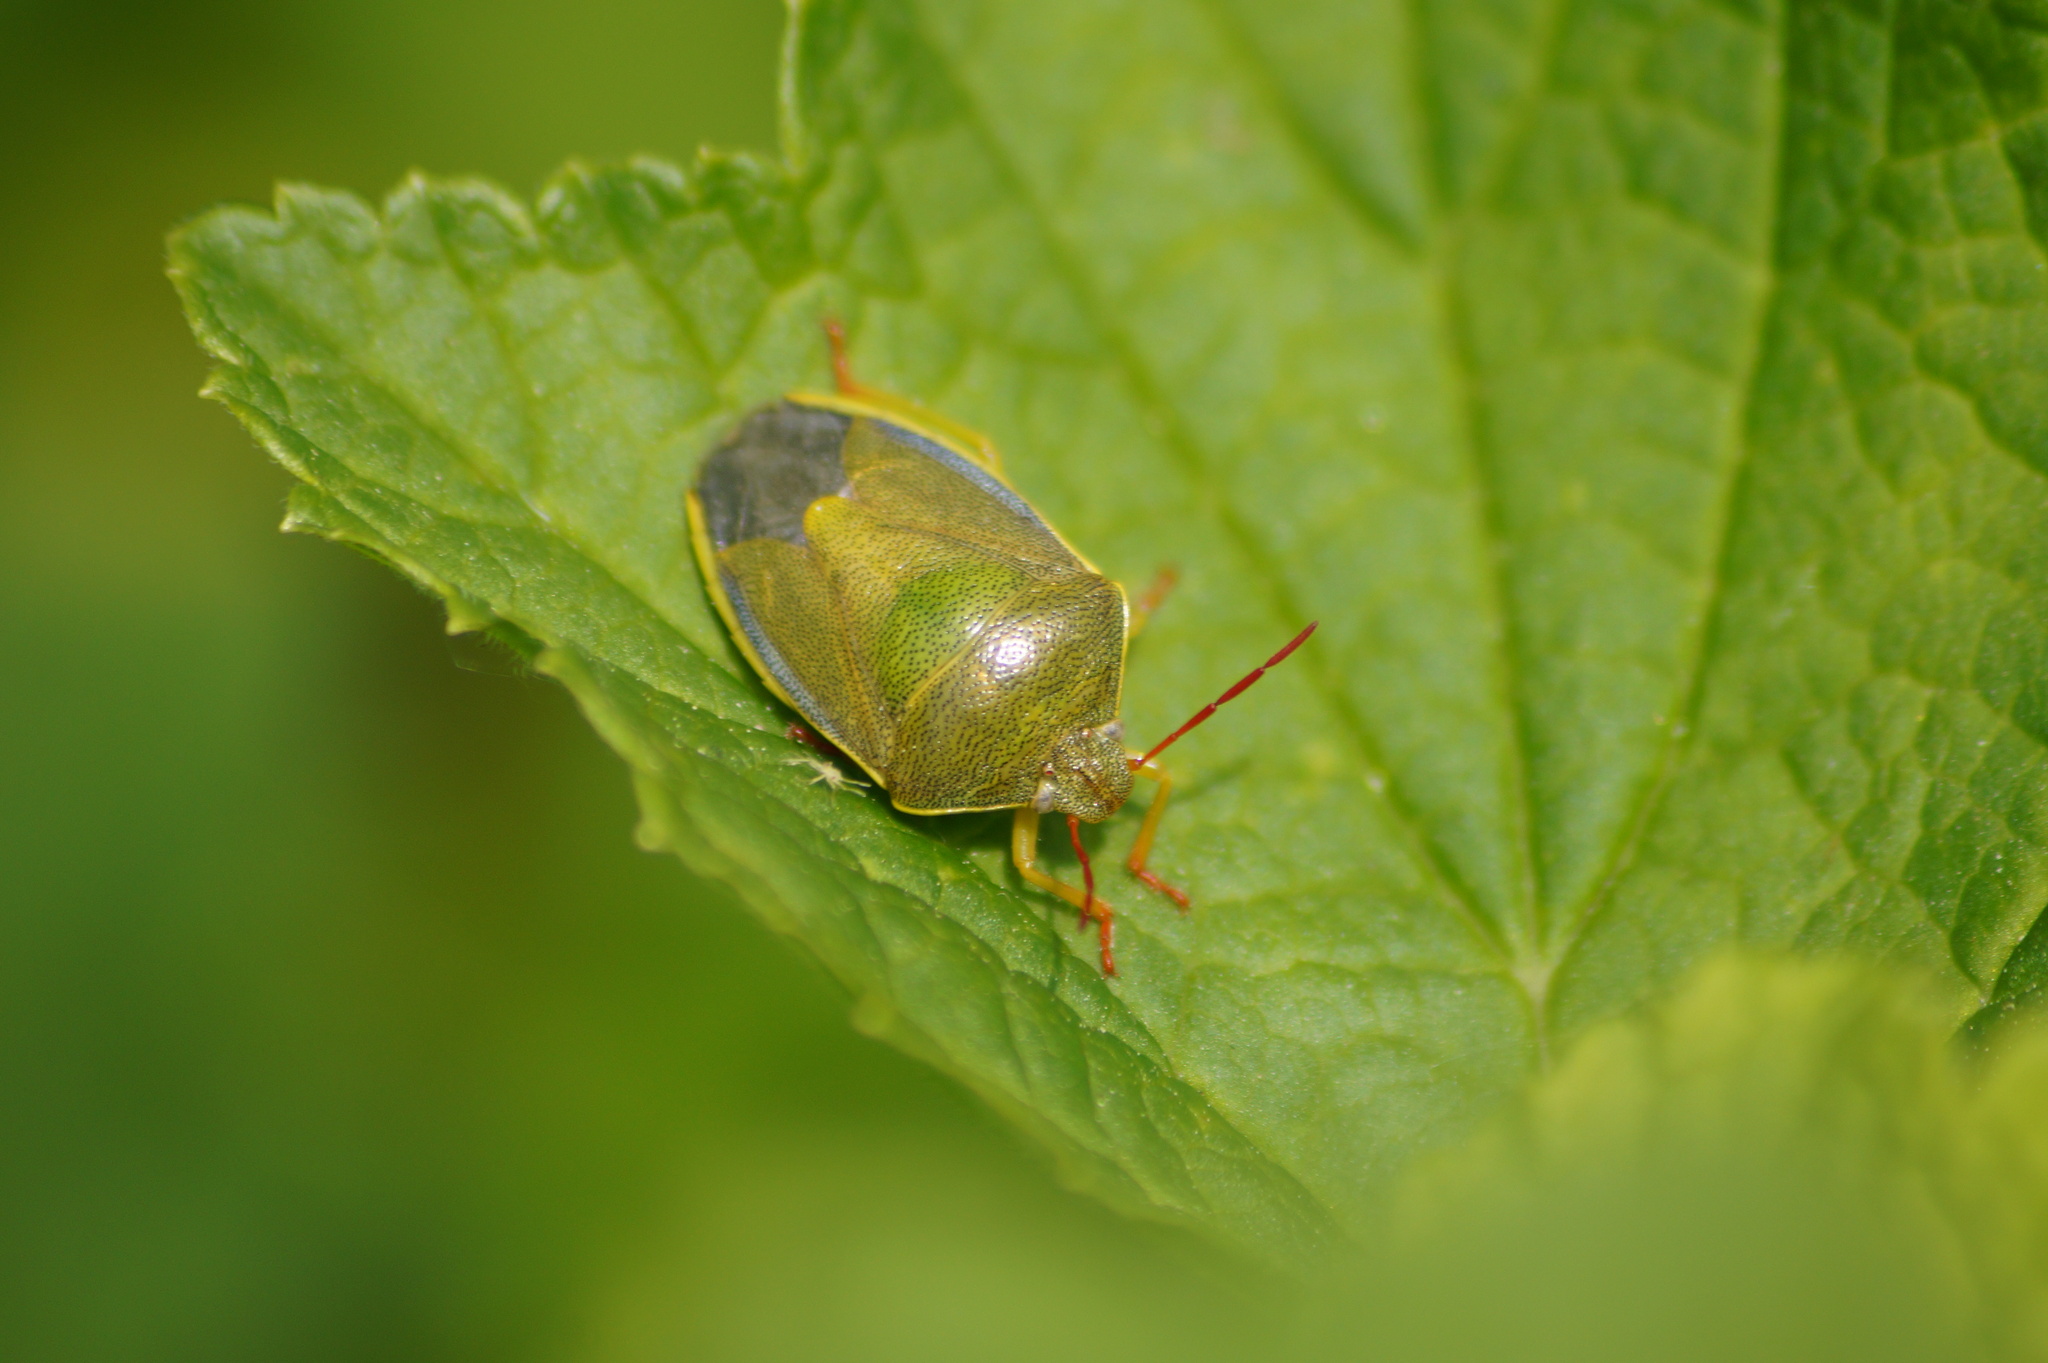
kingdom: Animalia
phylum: Arthropoda
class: Insecta
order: Hemiptera
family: Pentatomidae
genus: Piezodorus
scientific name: Piezodorus lituratus
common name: Stink bug
